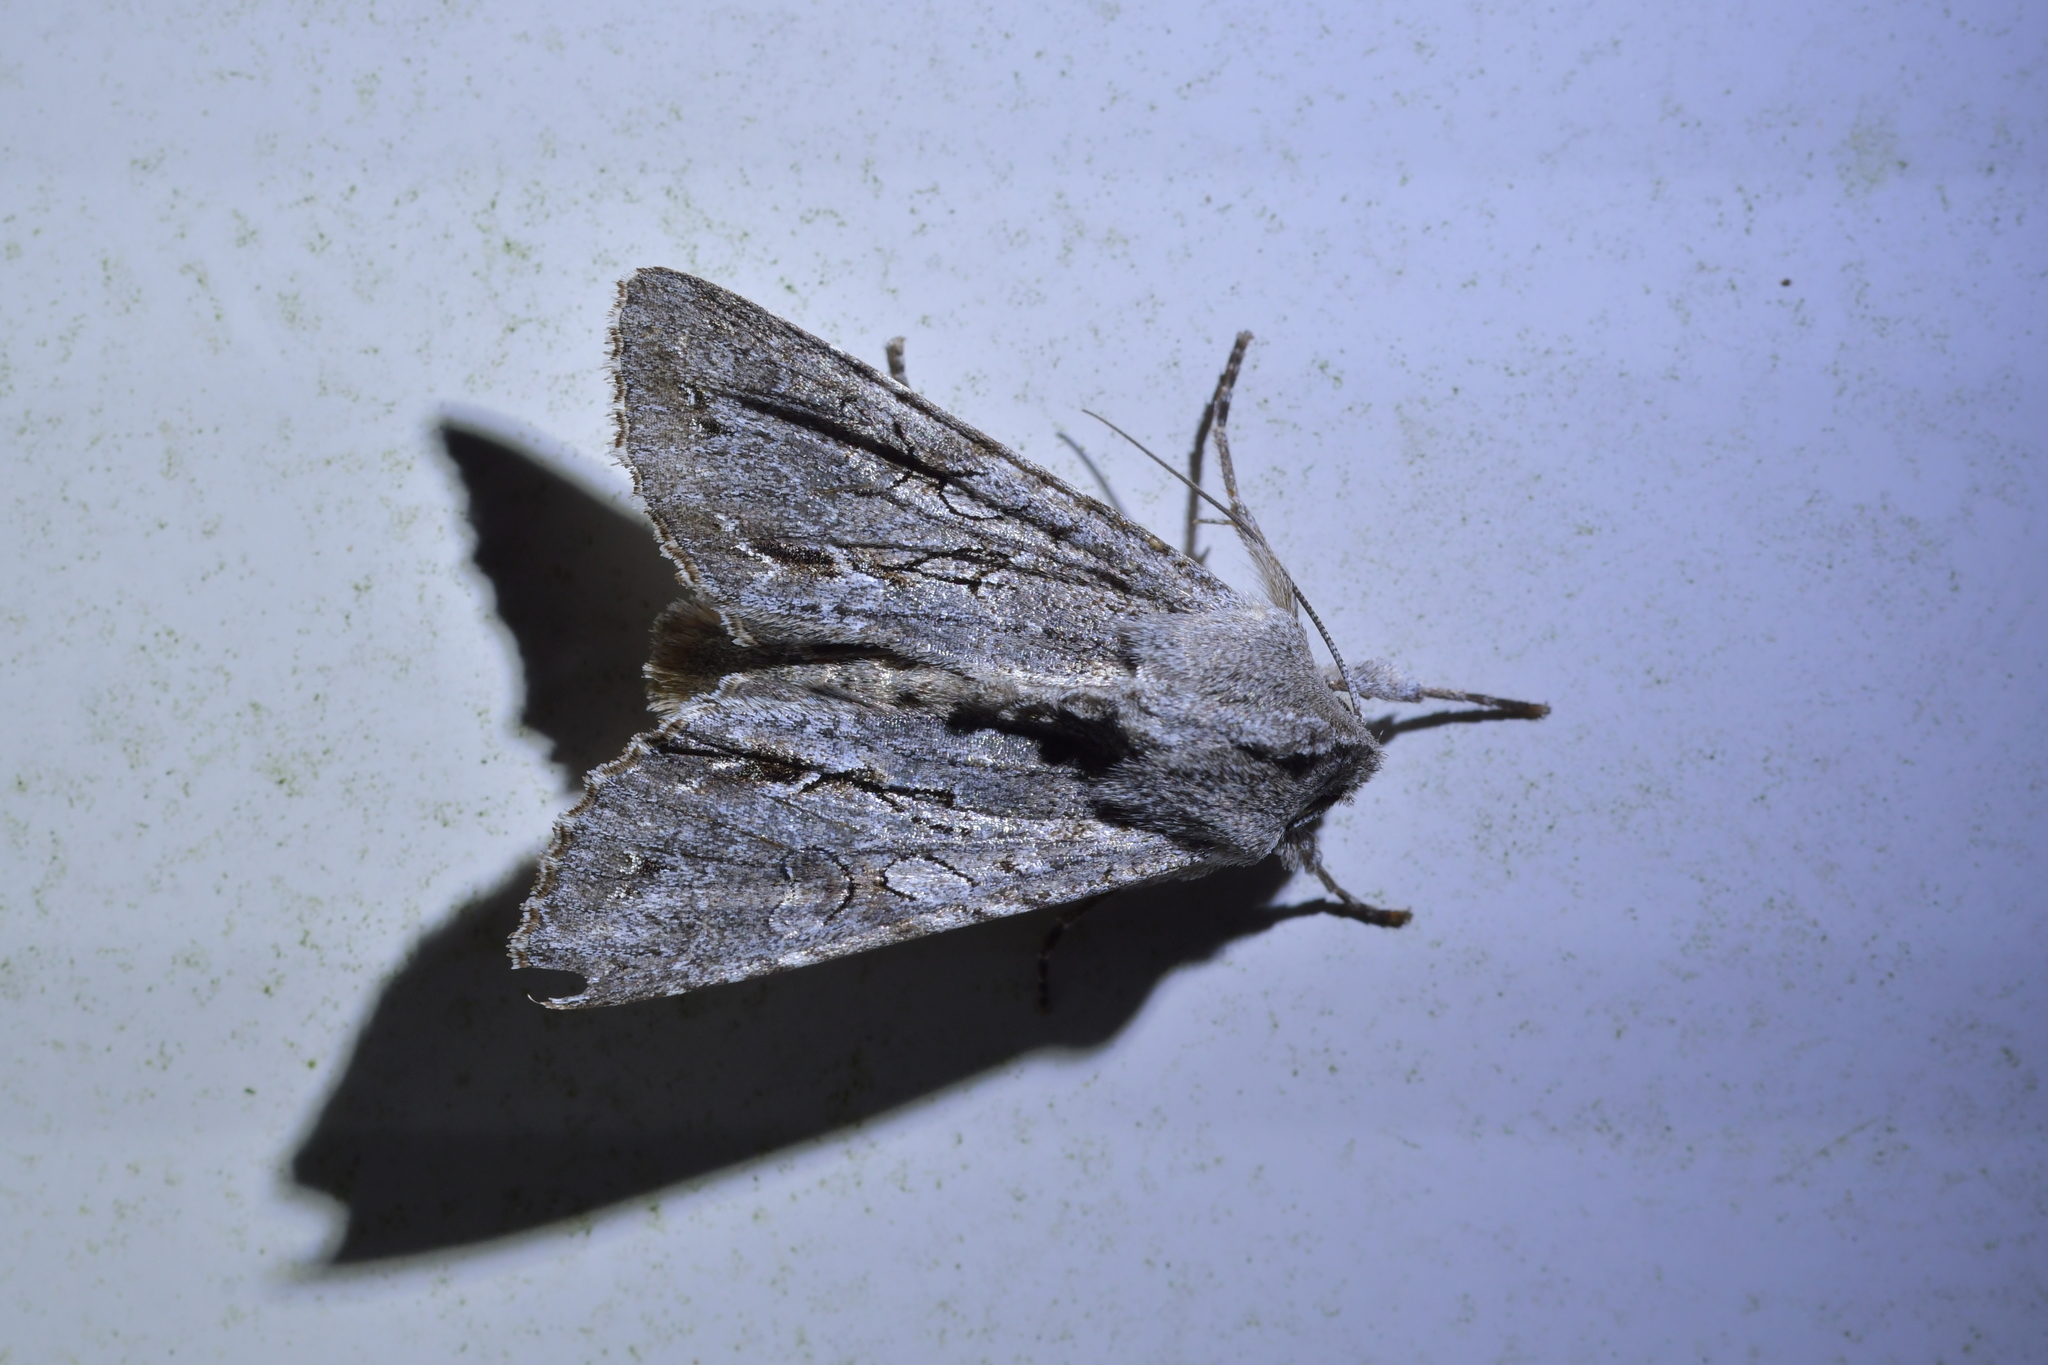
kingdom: Animalia
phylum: Arthropoda
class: Insecta
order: Lepidoptera
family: Noctuidae
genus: Ichneutica
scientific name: Ichneutica
